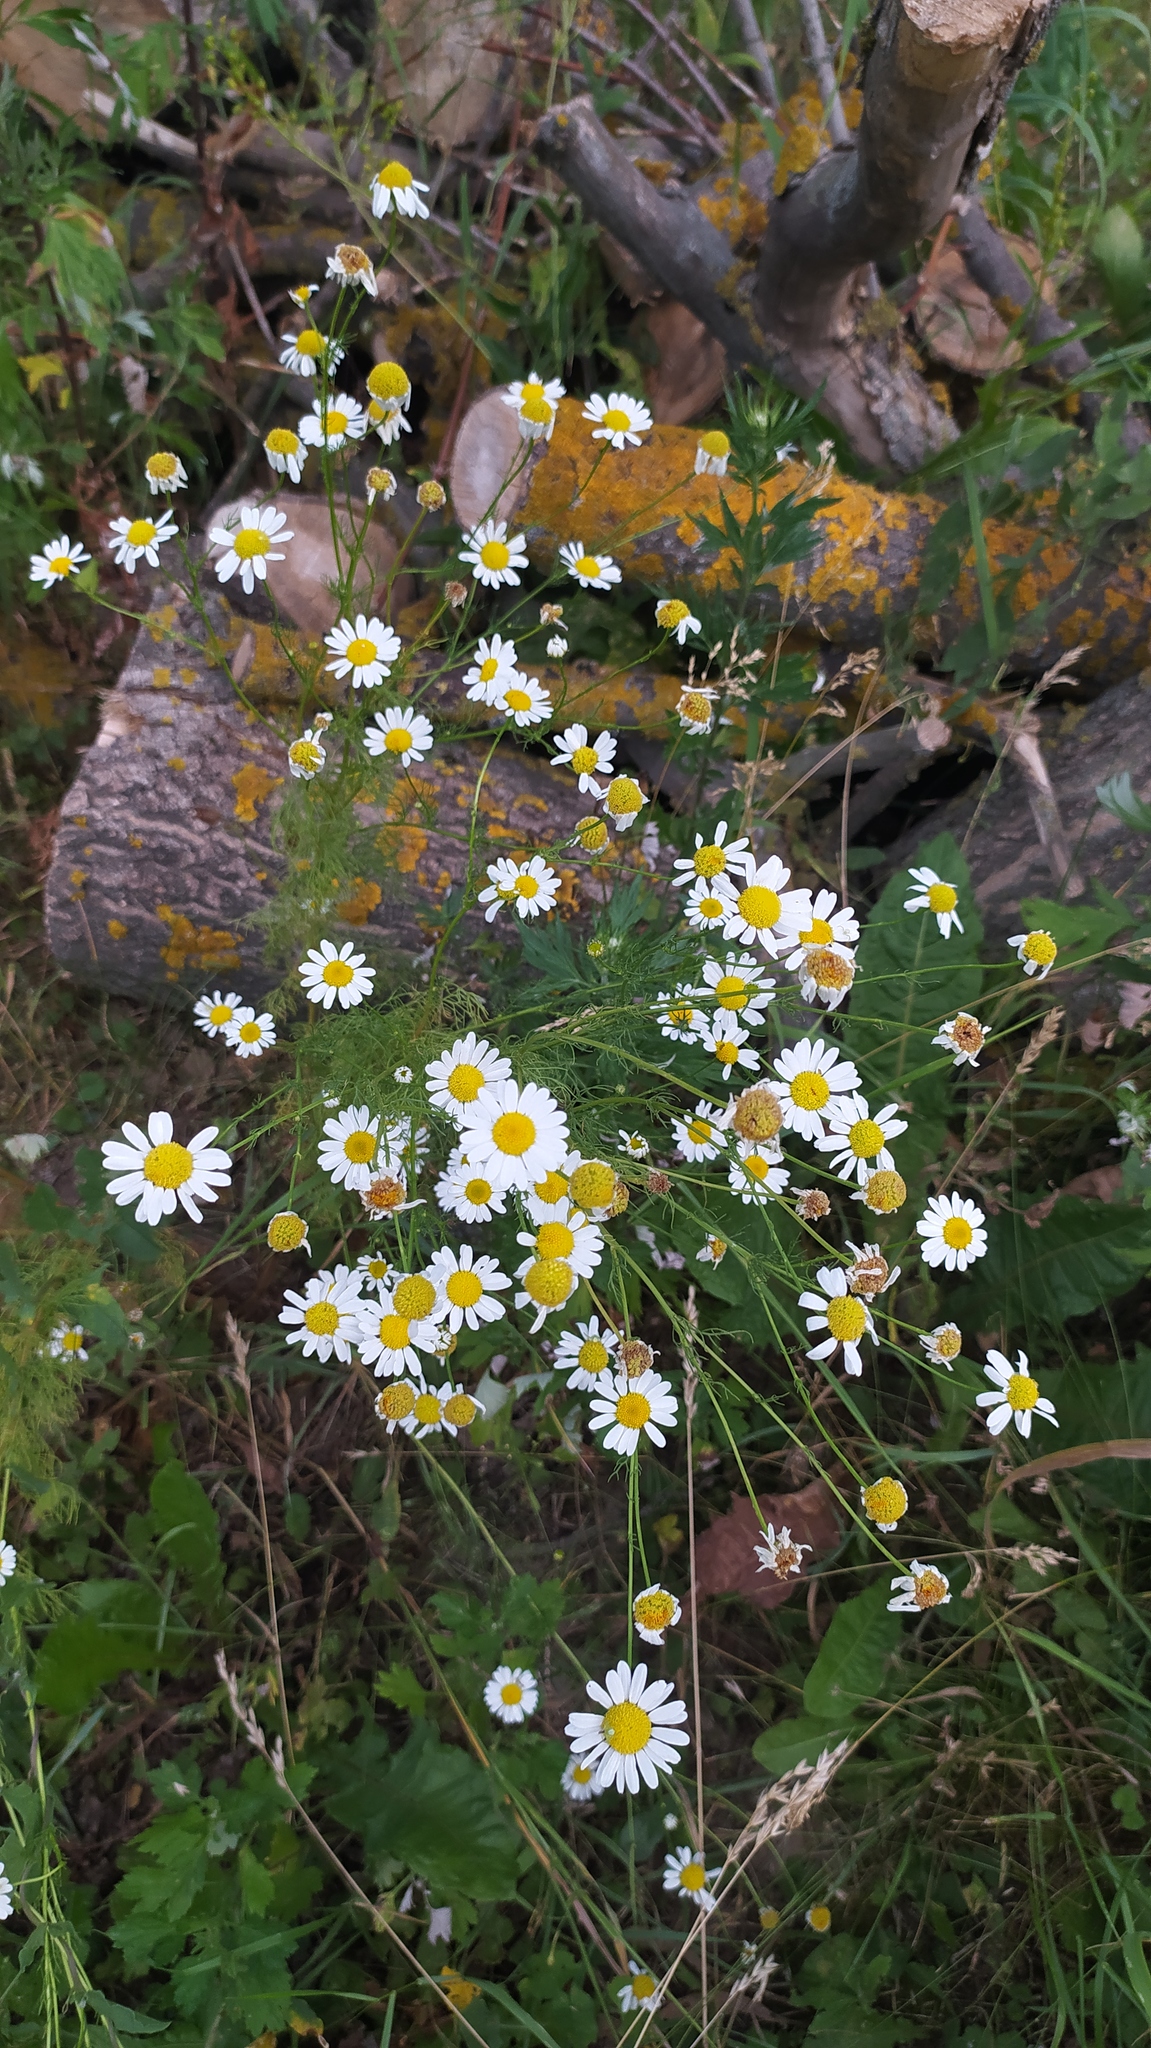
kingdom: Plantae
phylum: Tracheophyta
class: Magnoliopsida
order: Asterales
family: Asteraceae
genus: Tripleurospermum
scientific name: Tripleurospermum inodorum
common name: Scentless mayweed
